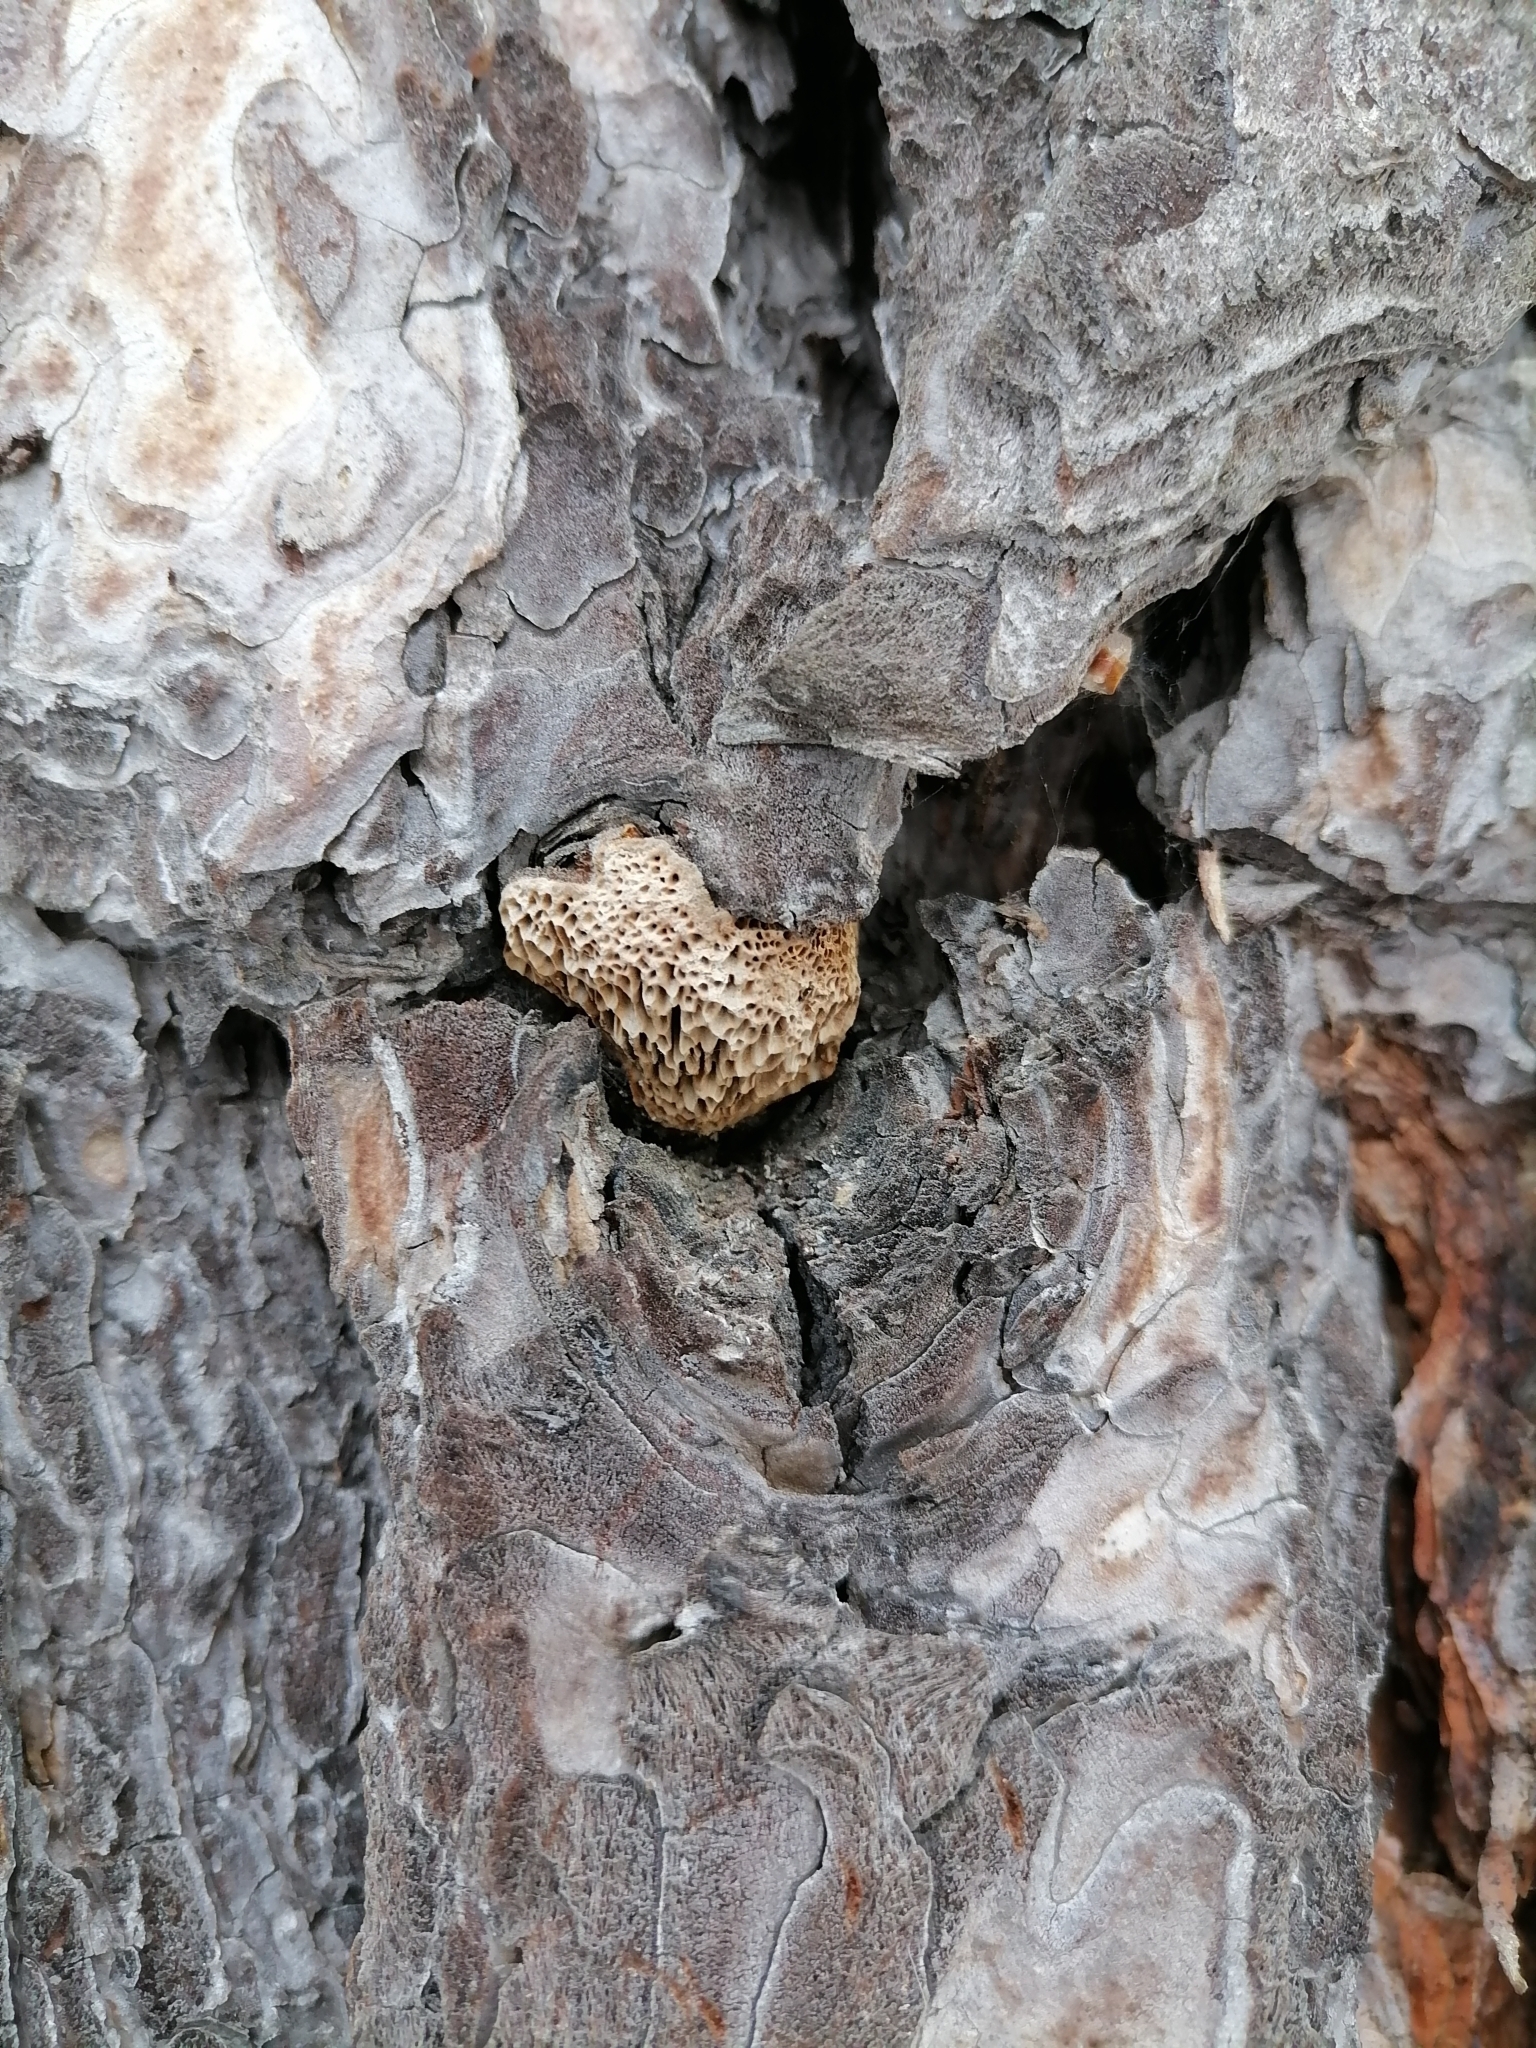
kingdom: Fungi
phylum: Basidiomycota
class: Agaricomycetes
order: Hymenochaetales
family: Hymenochaetaceae
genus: Porodaedalea
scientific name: Porodaedalea pini
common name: Pine bracket
